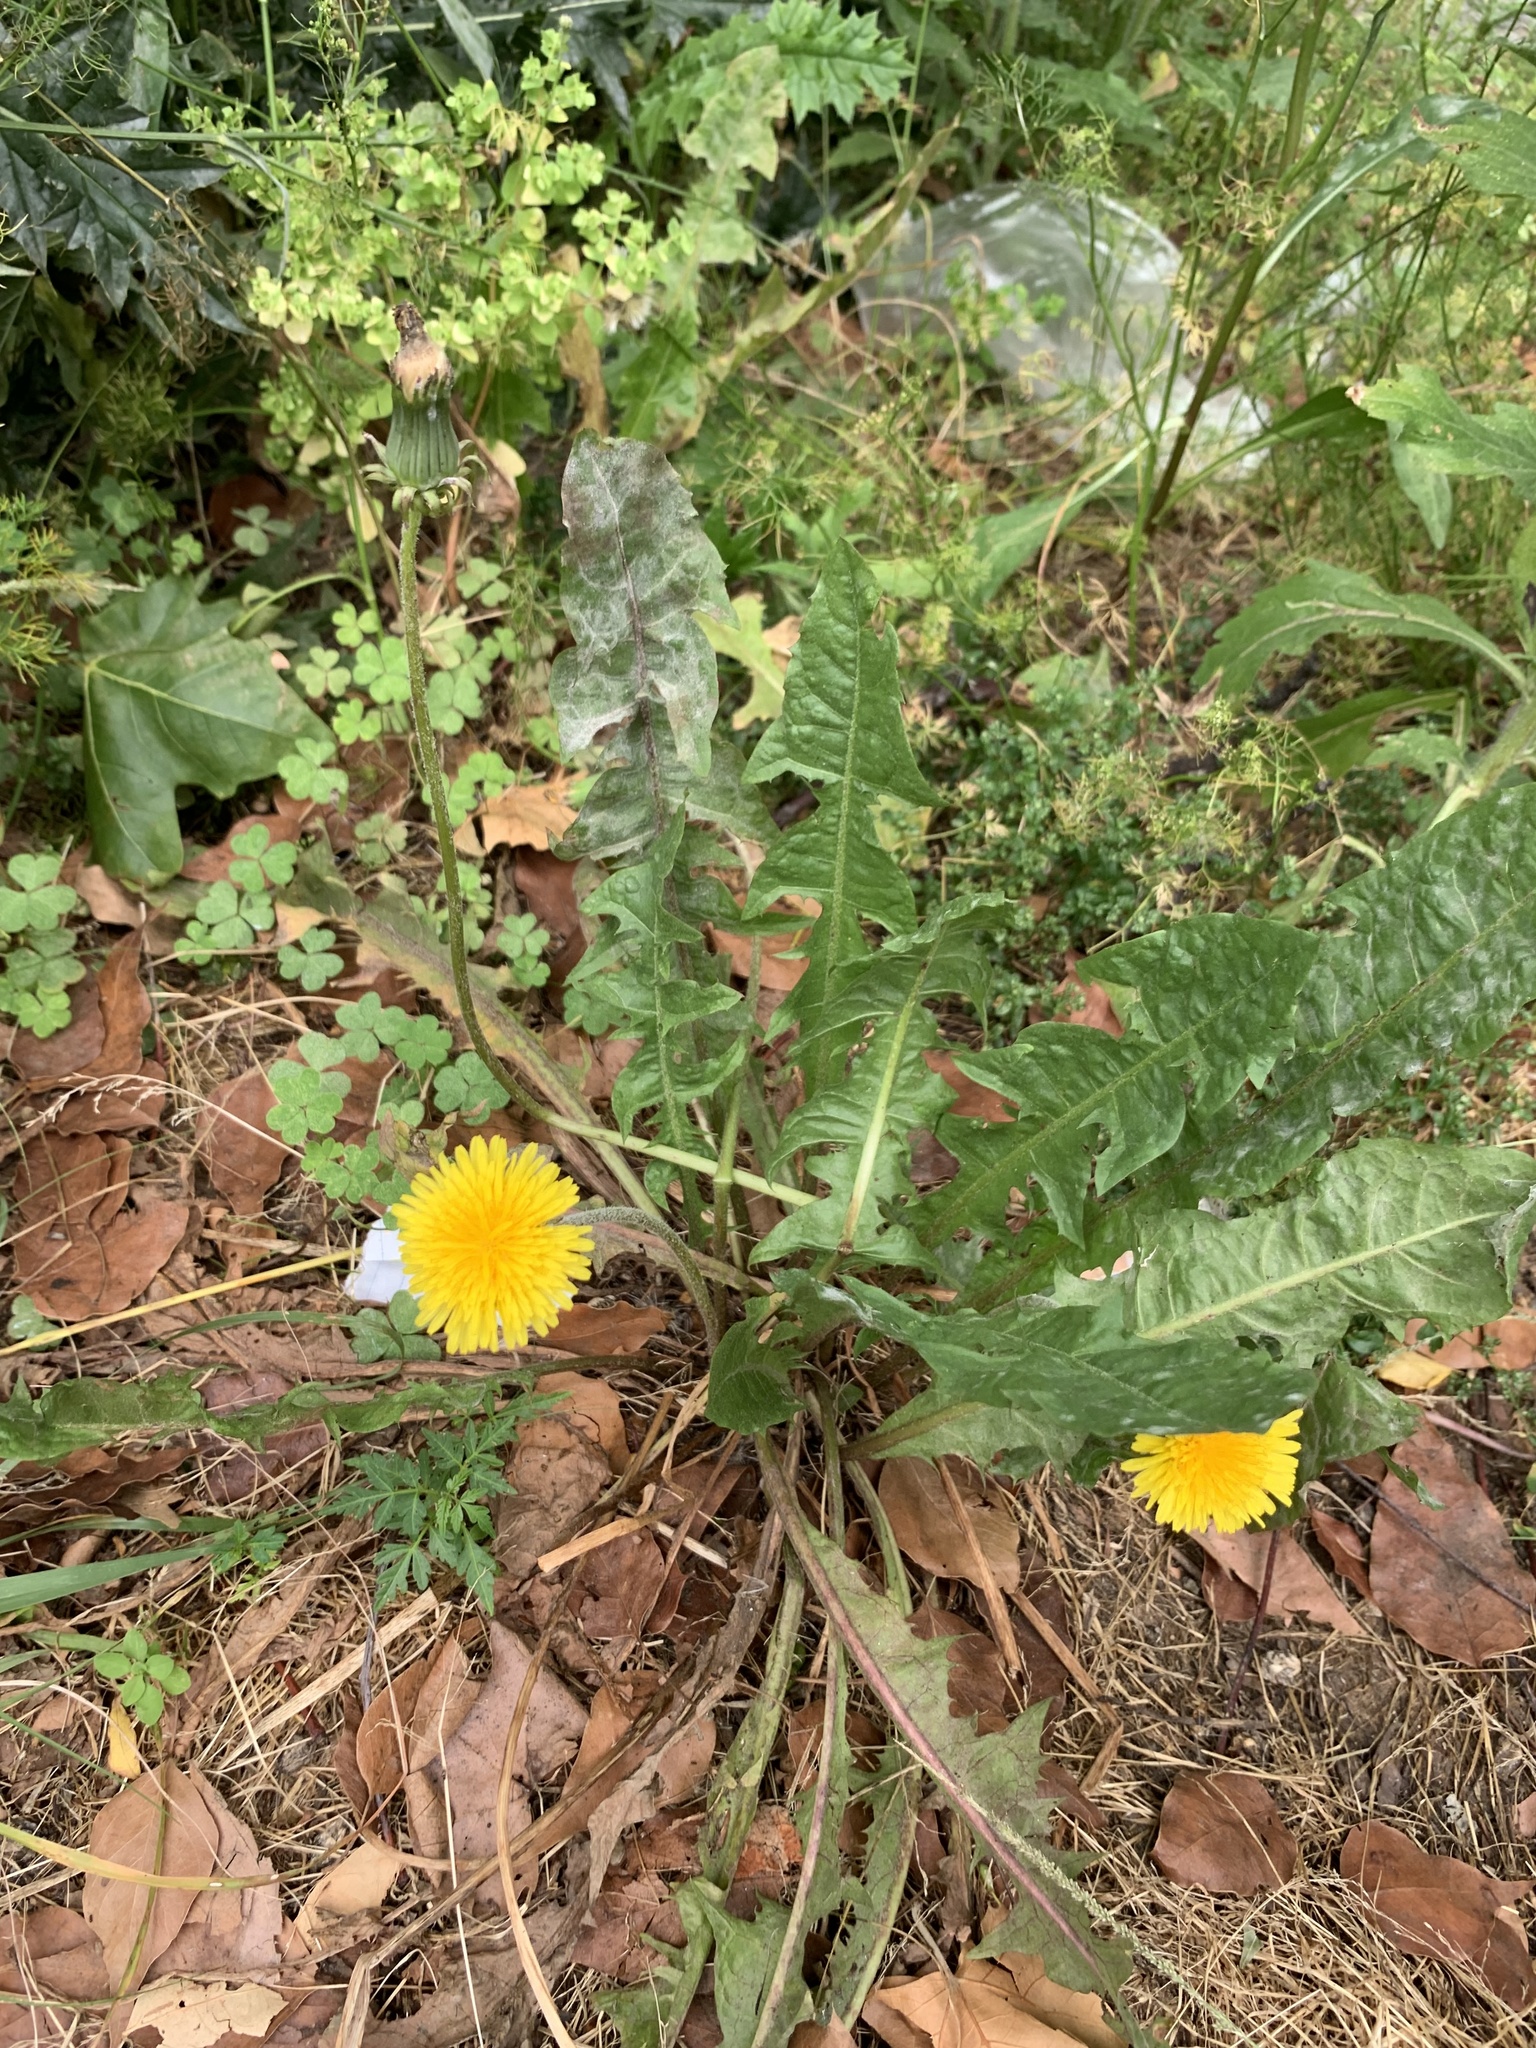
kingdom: Plantae
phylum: Tracheophyta
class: Magnoliopsida
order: Asterales
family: Asteraceae
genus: Taraxacum
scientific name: Taraxacum officinale
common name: Common dandelion
